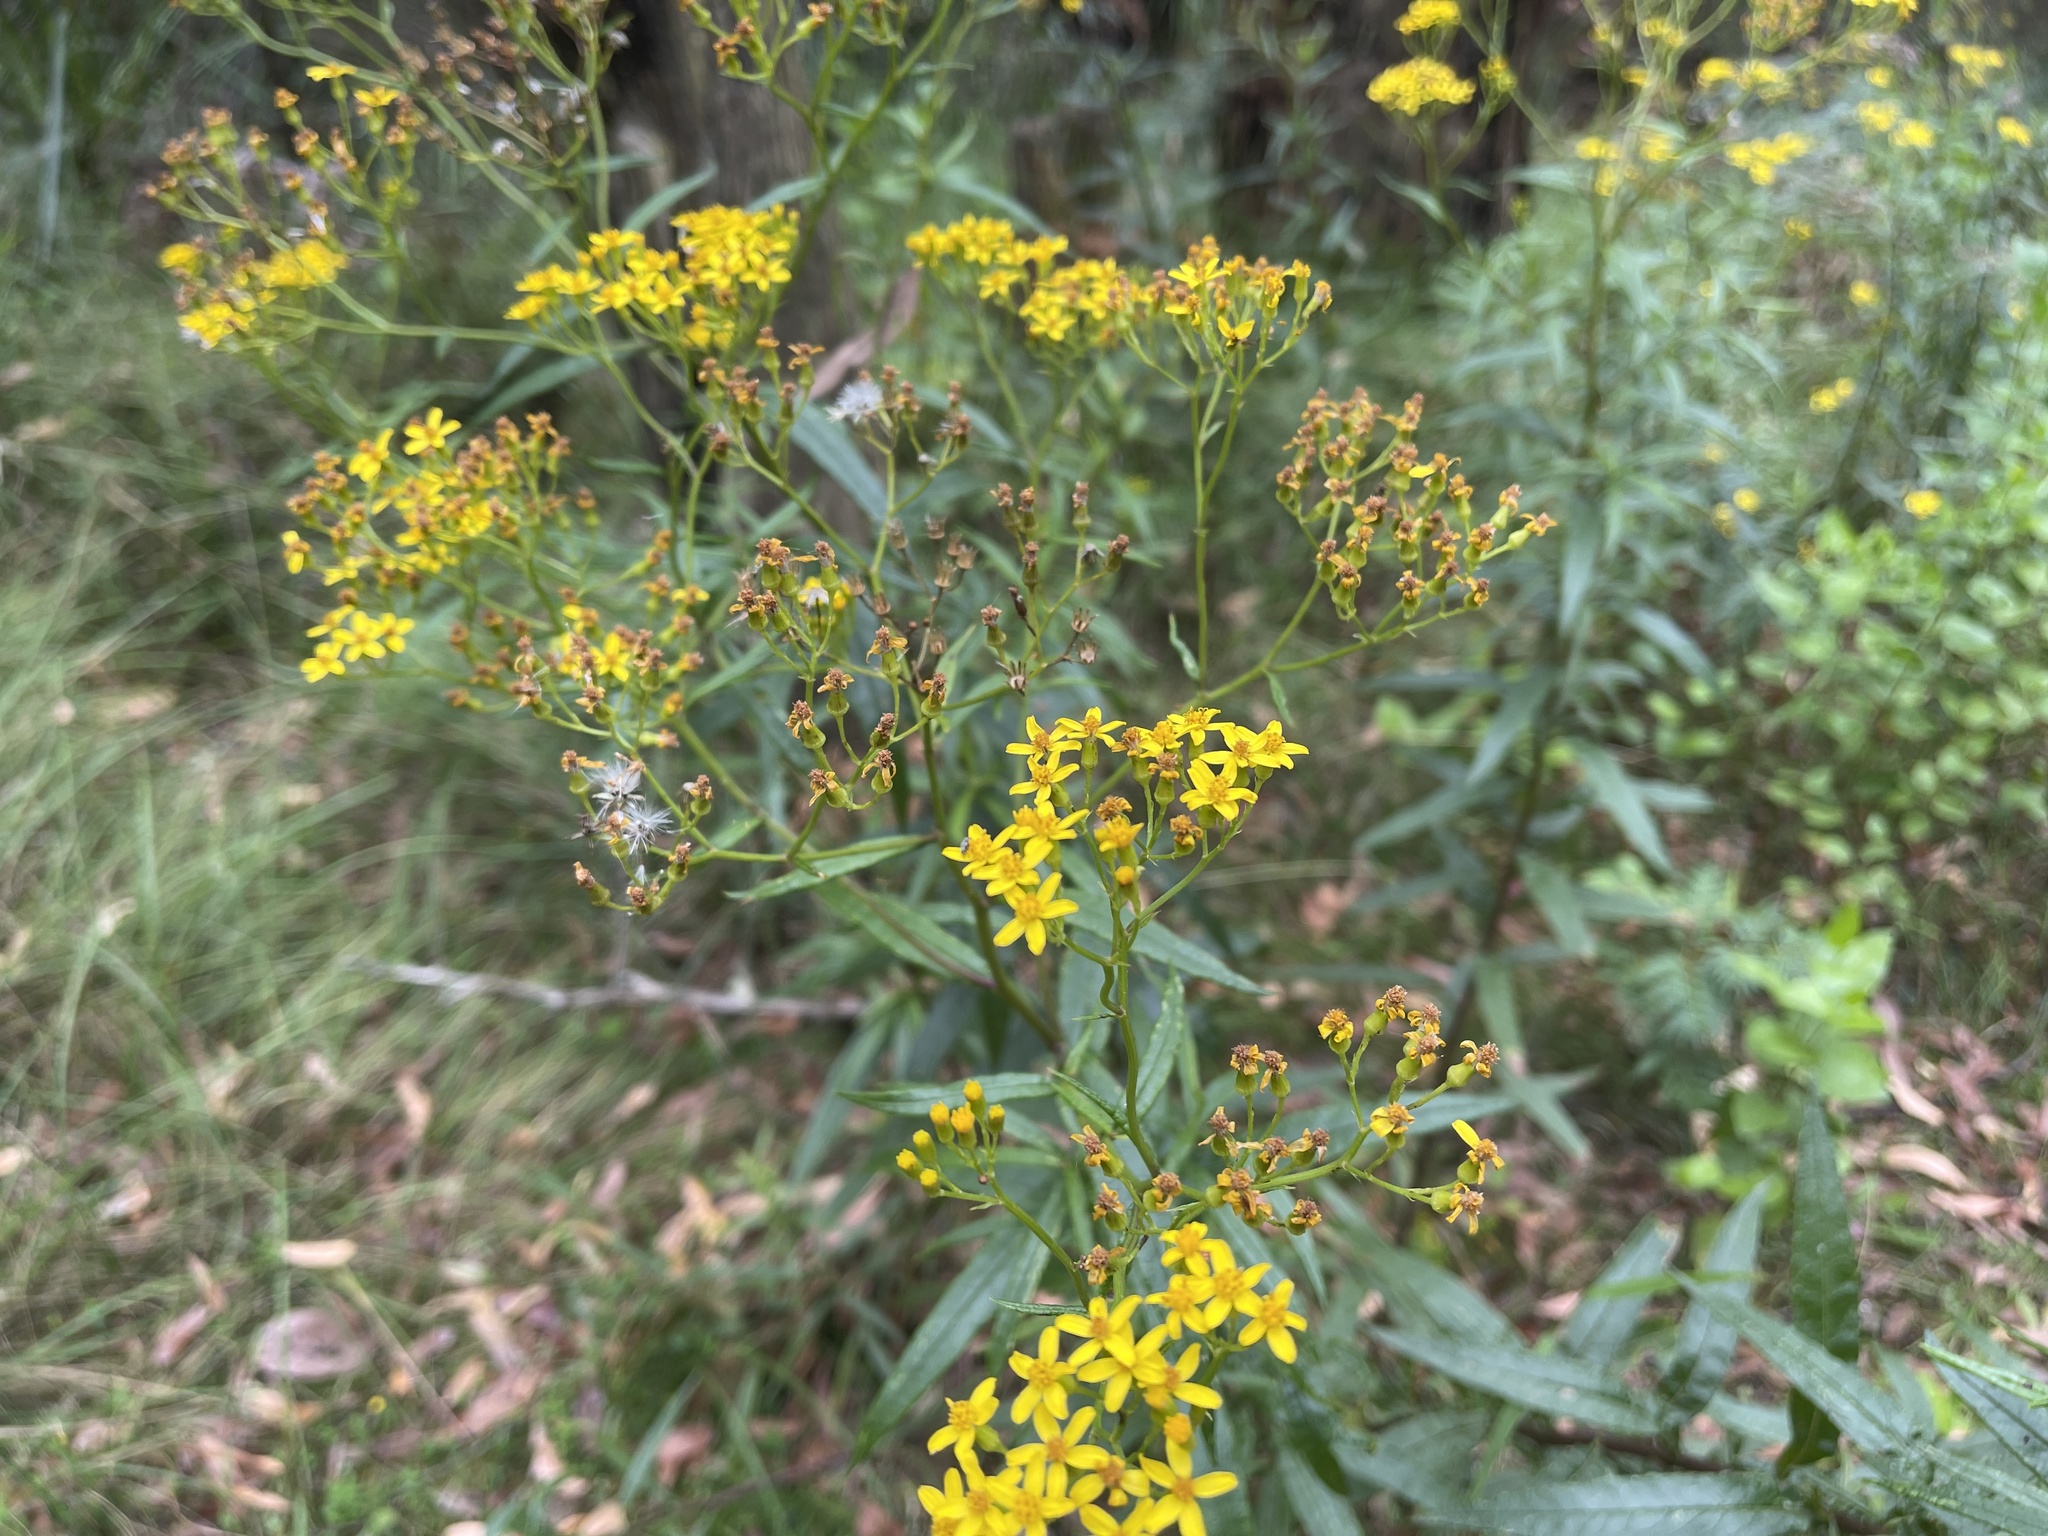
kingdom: Plantae
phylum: Tracheophyta
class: Magnoliopsida
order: Asterales
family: Asteraceae
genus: Senecio
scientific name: Senecio linearifolius
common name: Fireweed groundsel
